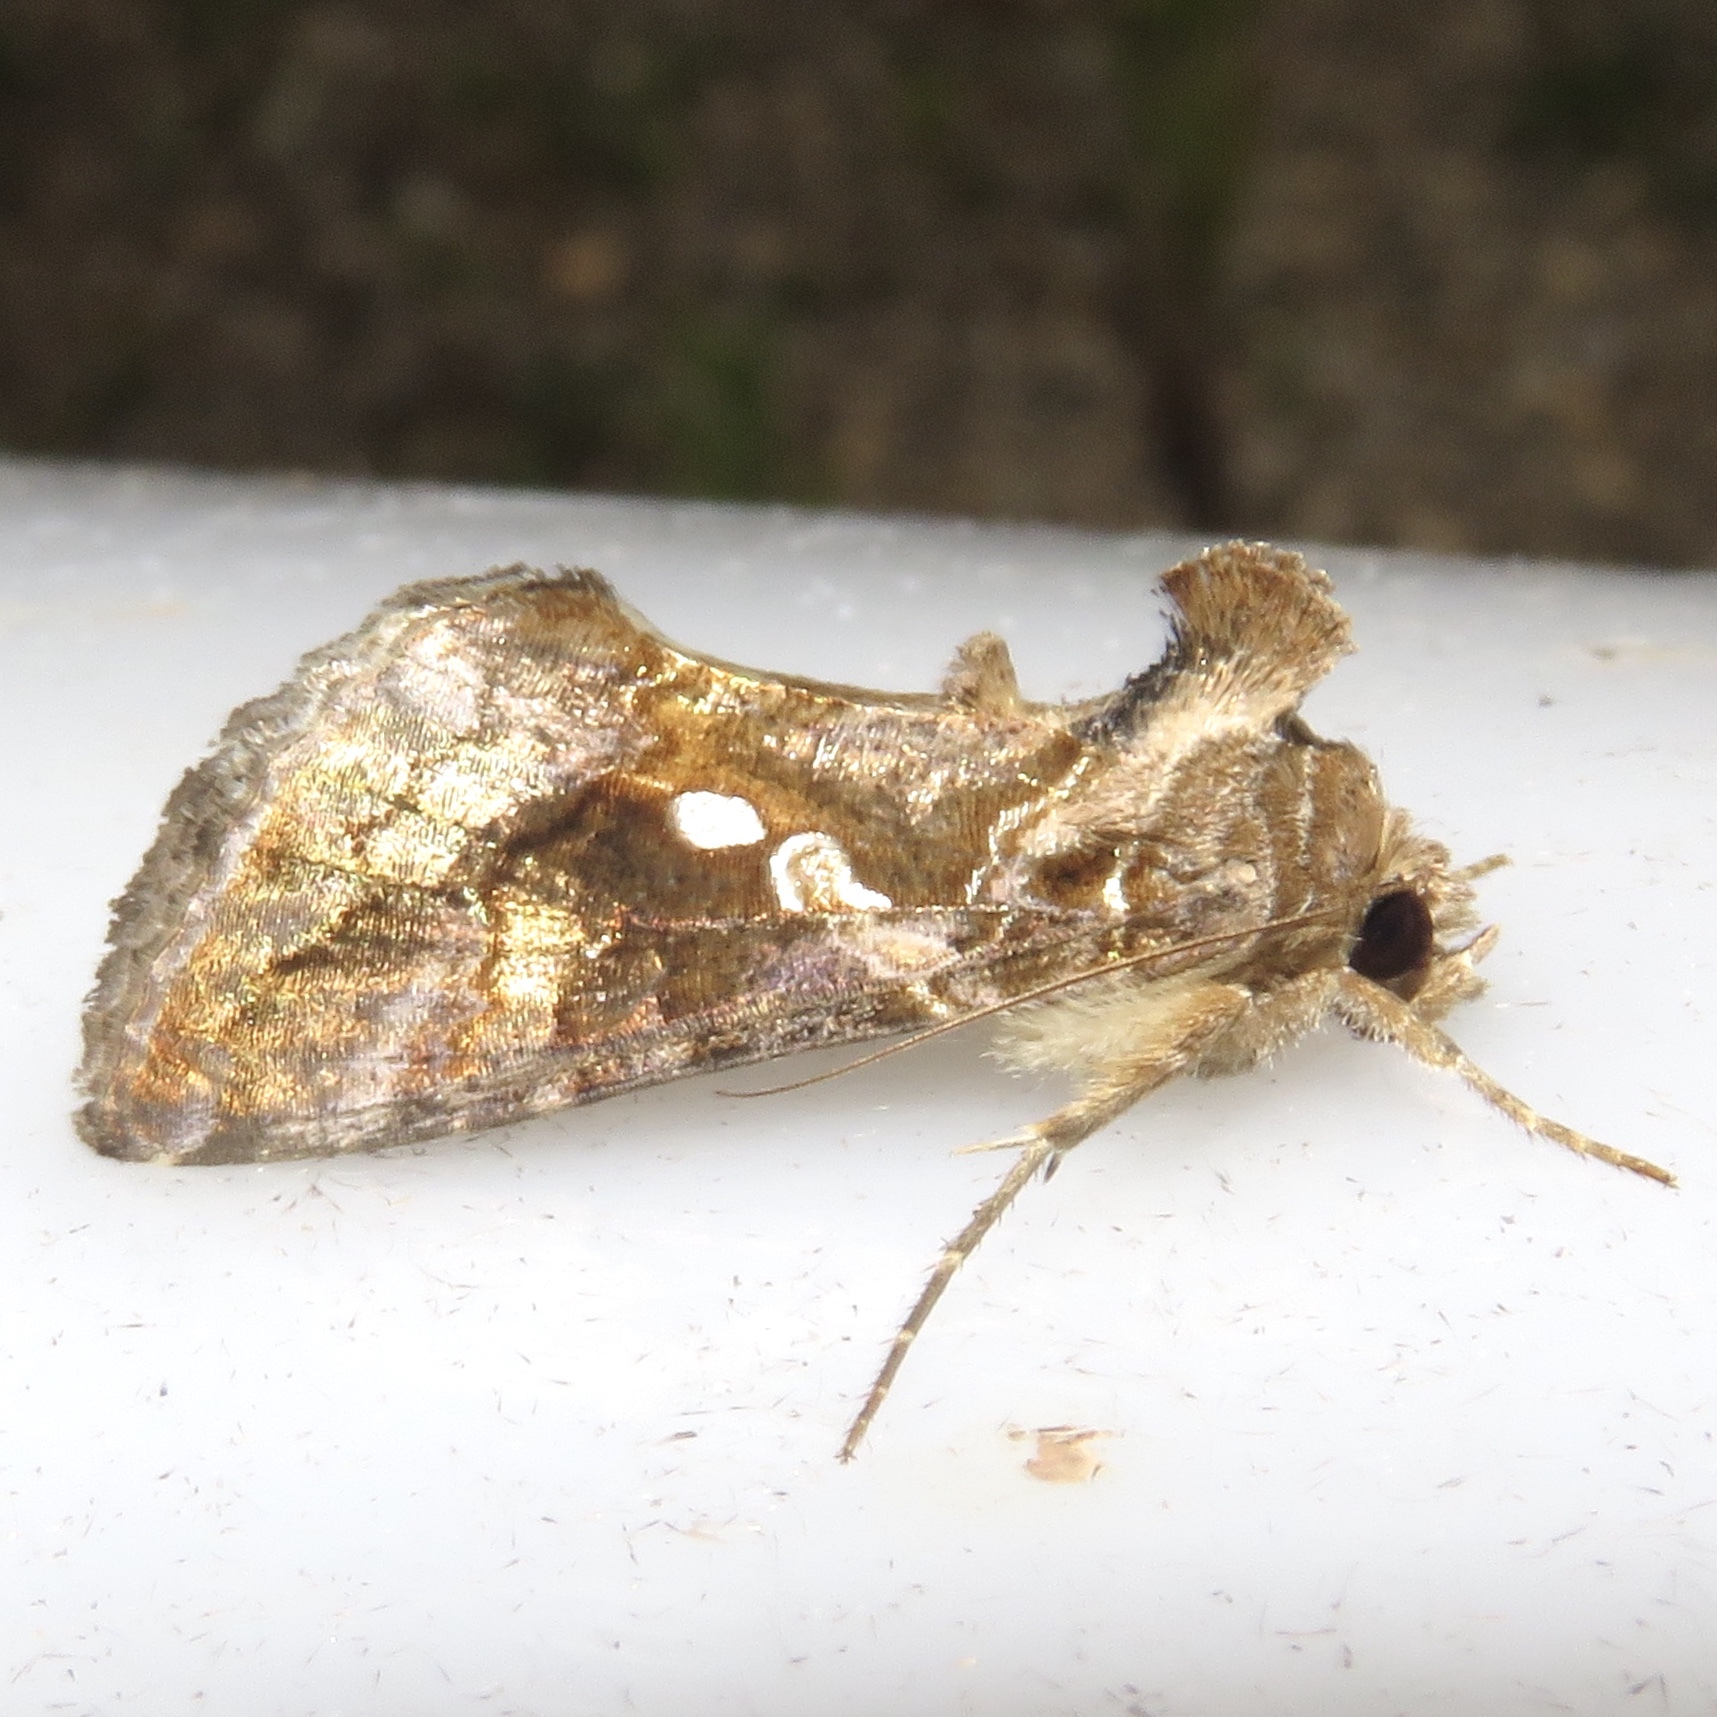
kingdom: Animalia
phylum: Arthropoda
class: Insecta
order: Lepidoptera
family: Noctuidae
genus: Chrysodeixis
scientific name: Chrysodeixis includens
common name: Cutworm moth
